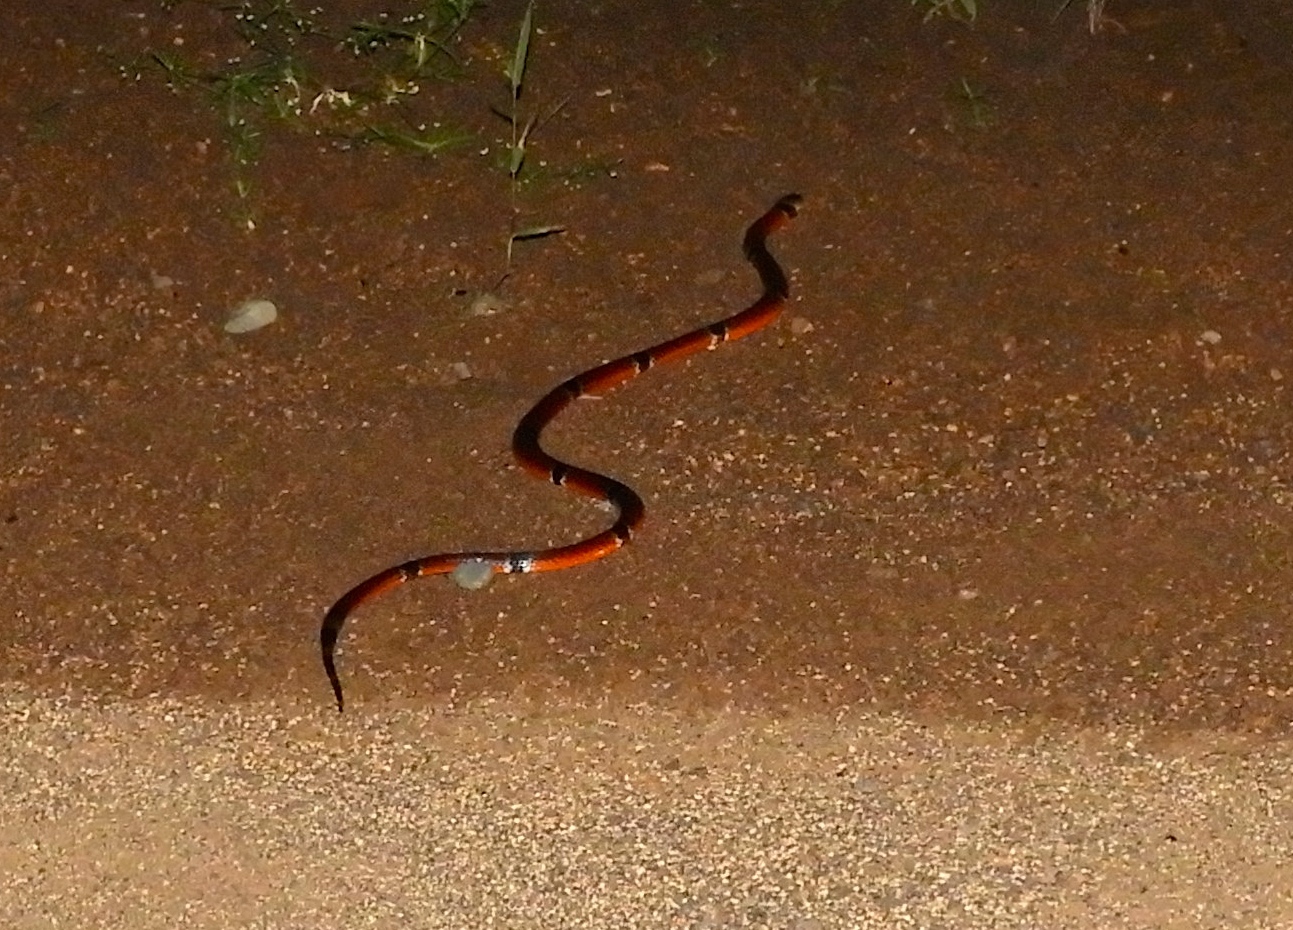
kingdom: Animalia
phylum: Chordata
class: Squamata
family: Elapidae
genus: Micrurus
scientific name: Micrurus distans
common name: Clear-banded coral snake
